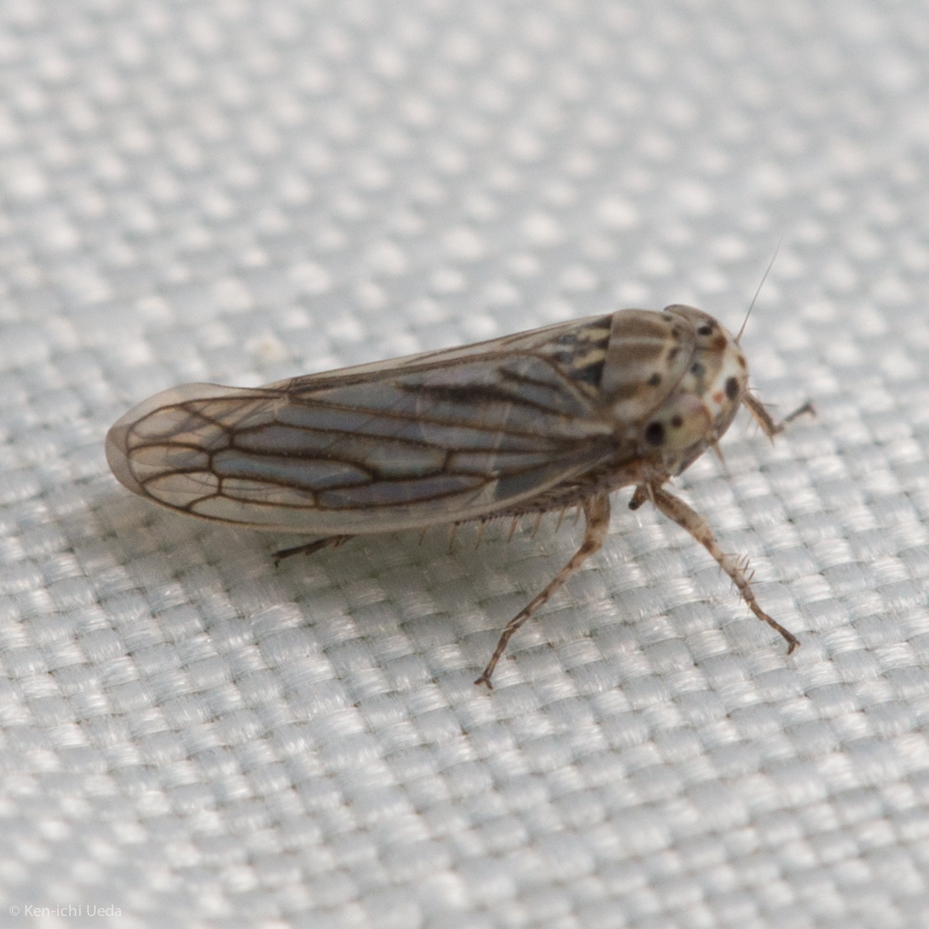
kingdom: Animalia
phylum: Arthropoda
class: Insecta
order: Hemiptera
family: Cicadellidae
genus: Exitianus
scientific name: Exitianus exitiosus
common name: Gray lawn leafhopper
